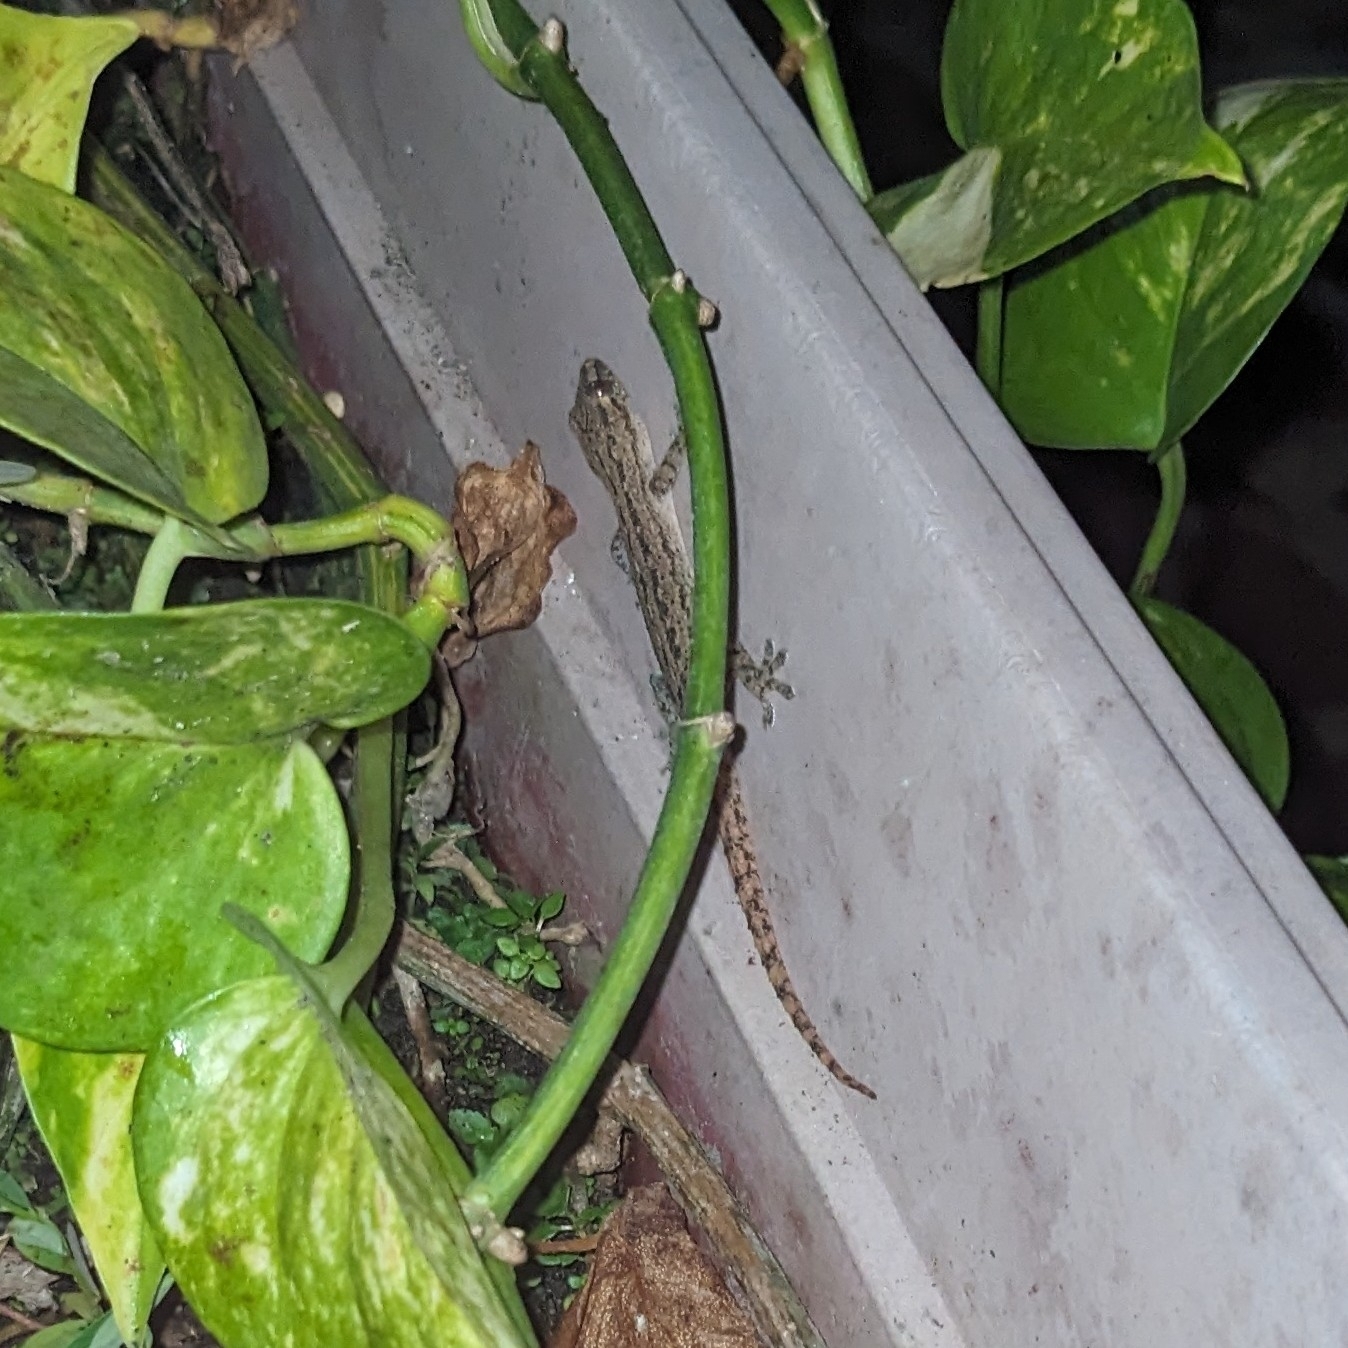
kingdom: Animalia
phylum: Chordata
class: Squamata
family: Gekkonidae
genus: Hemidactylus
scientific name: Hemidactylus frenatus
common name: Common house gecko
